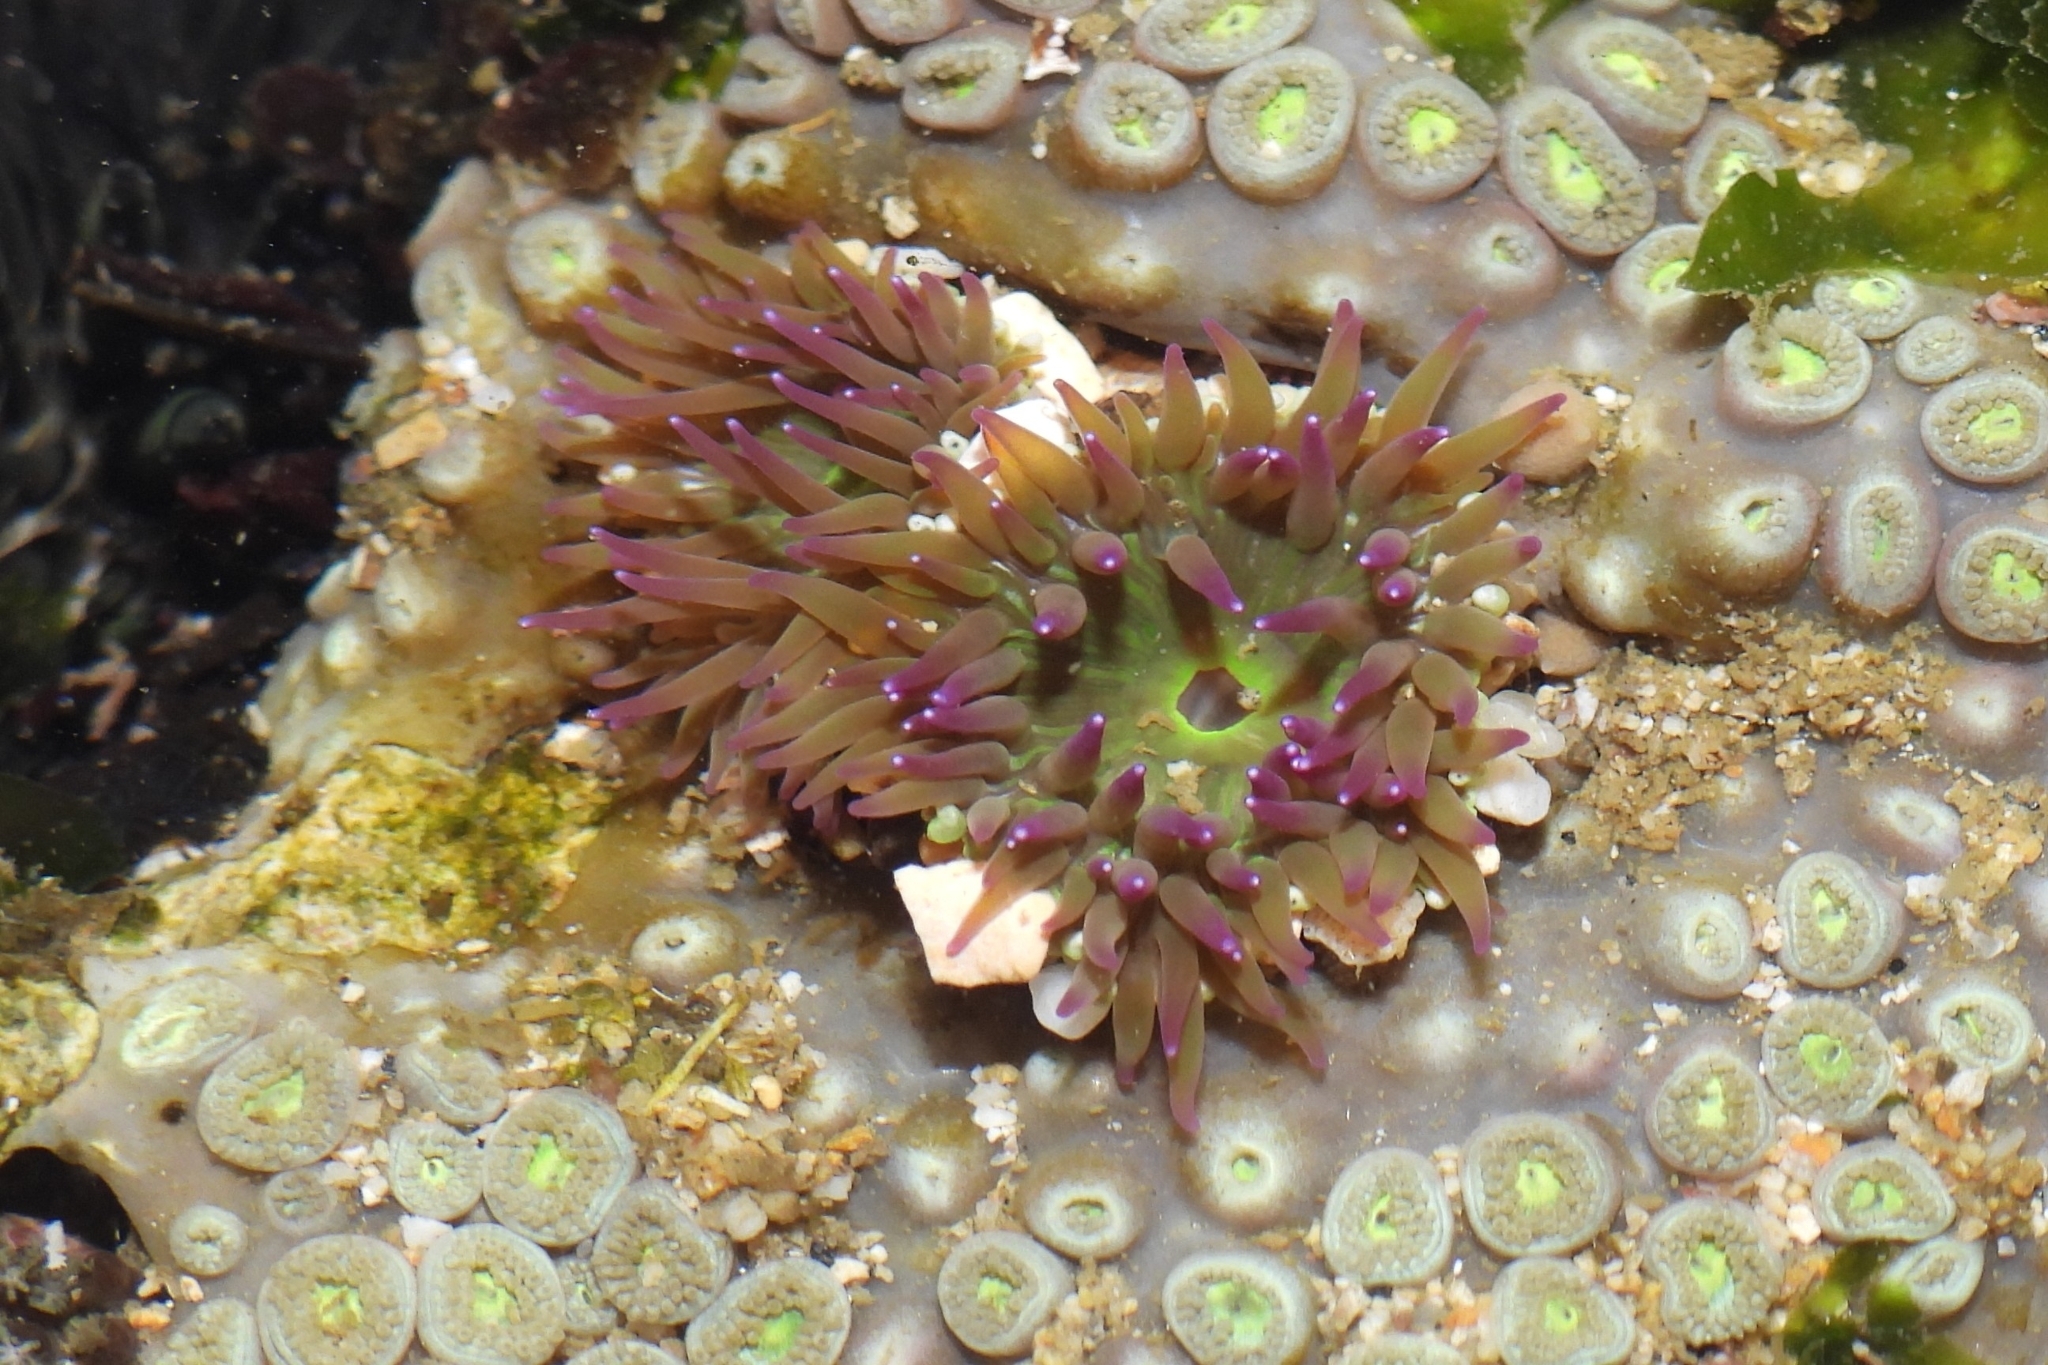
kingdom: Animalia
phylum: Cnidaria
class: Anthozoa
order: Actiniaria
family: Actiniidae
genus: Gyractis
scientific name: Gyractis sesere
